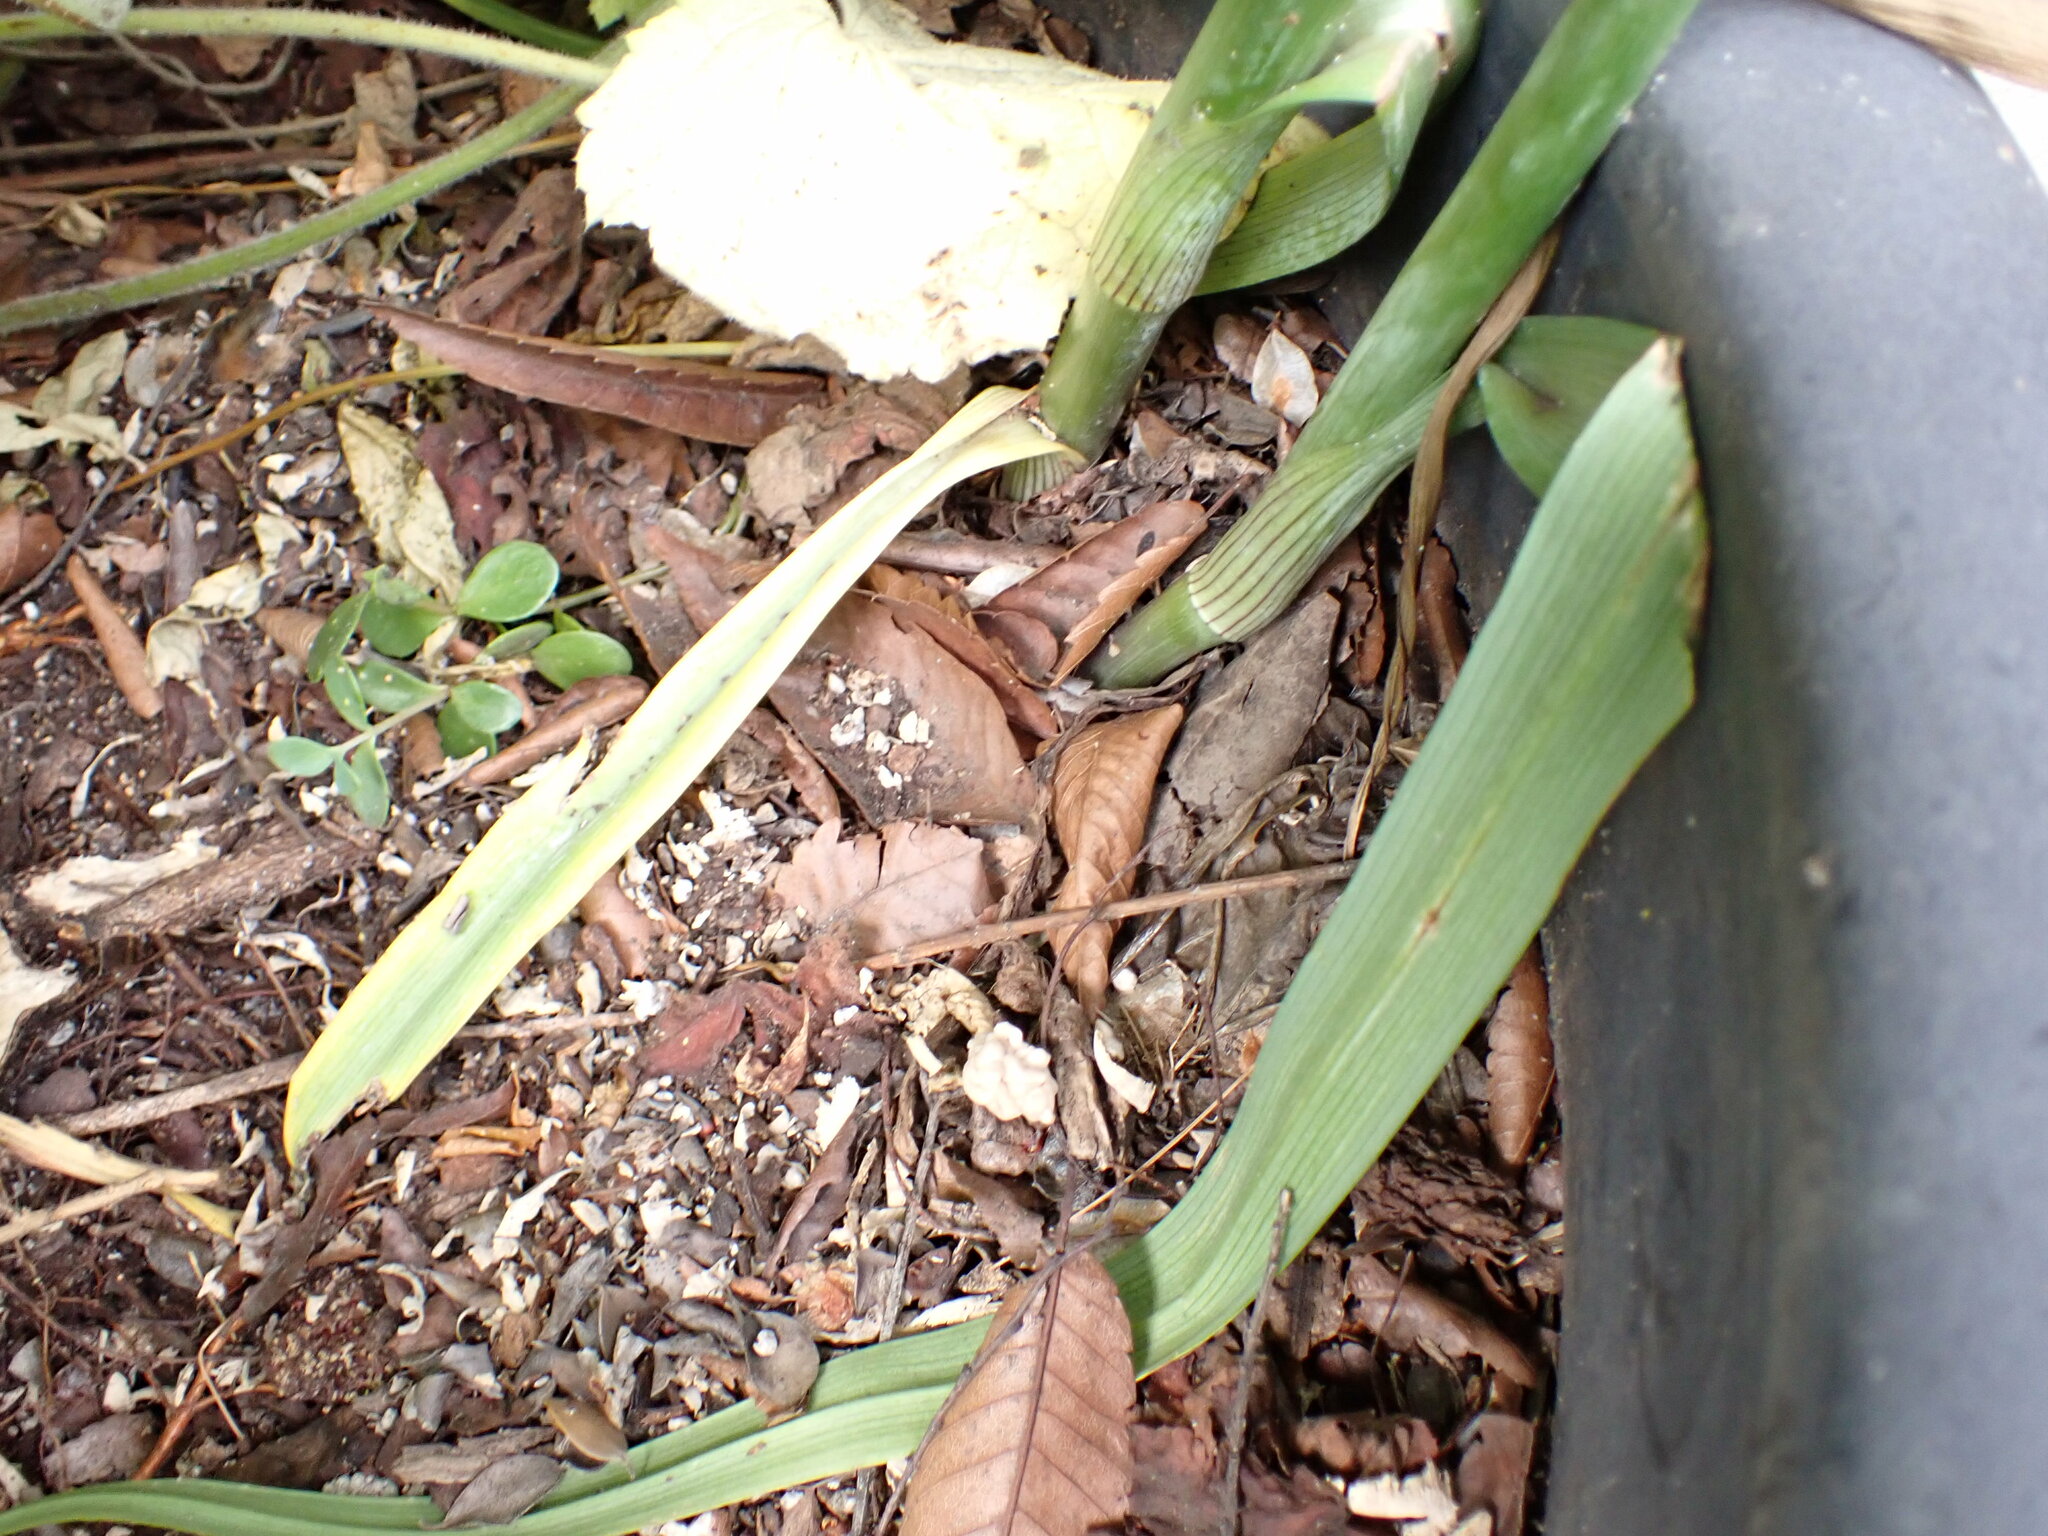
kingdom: Plantae
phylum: Tracheophyta
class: Liliopsida
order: Commelinales
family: Commelinaceae
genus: Tradescantia
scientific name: Tradescantia virginiana
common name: Spiderwort
